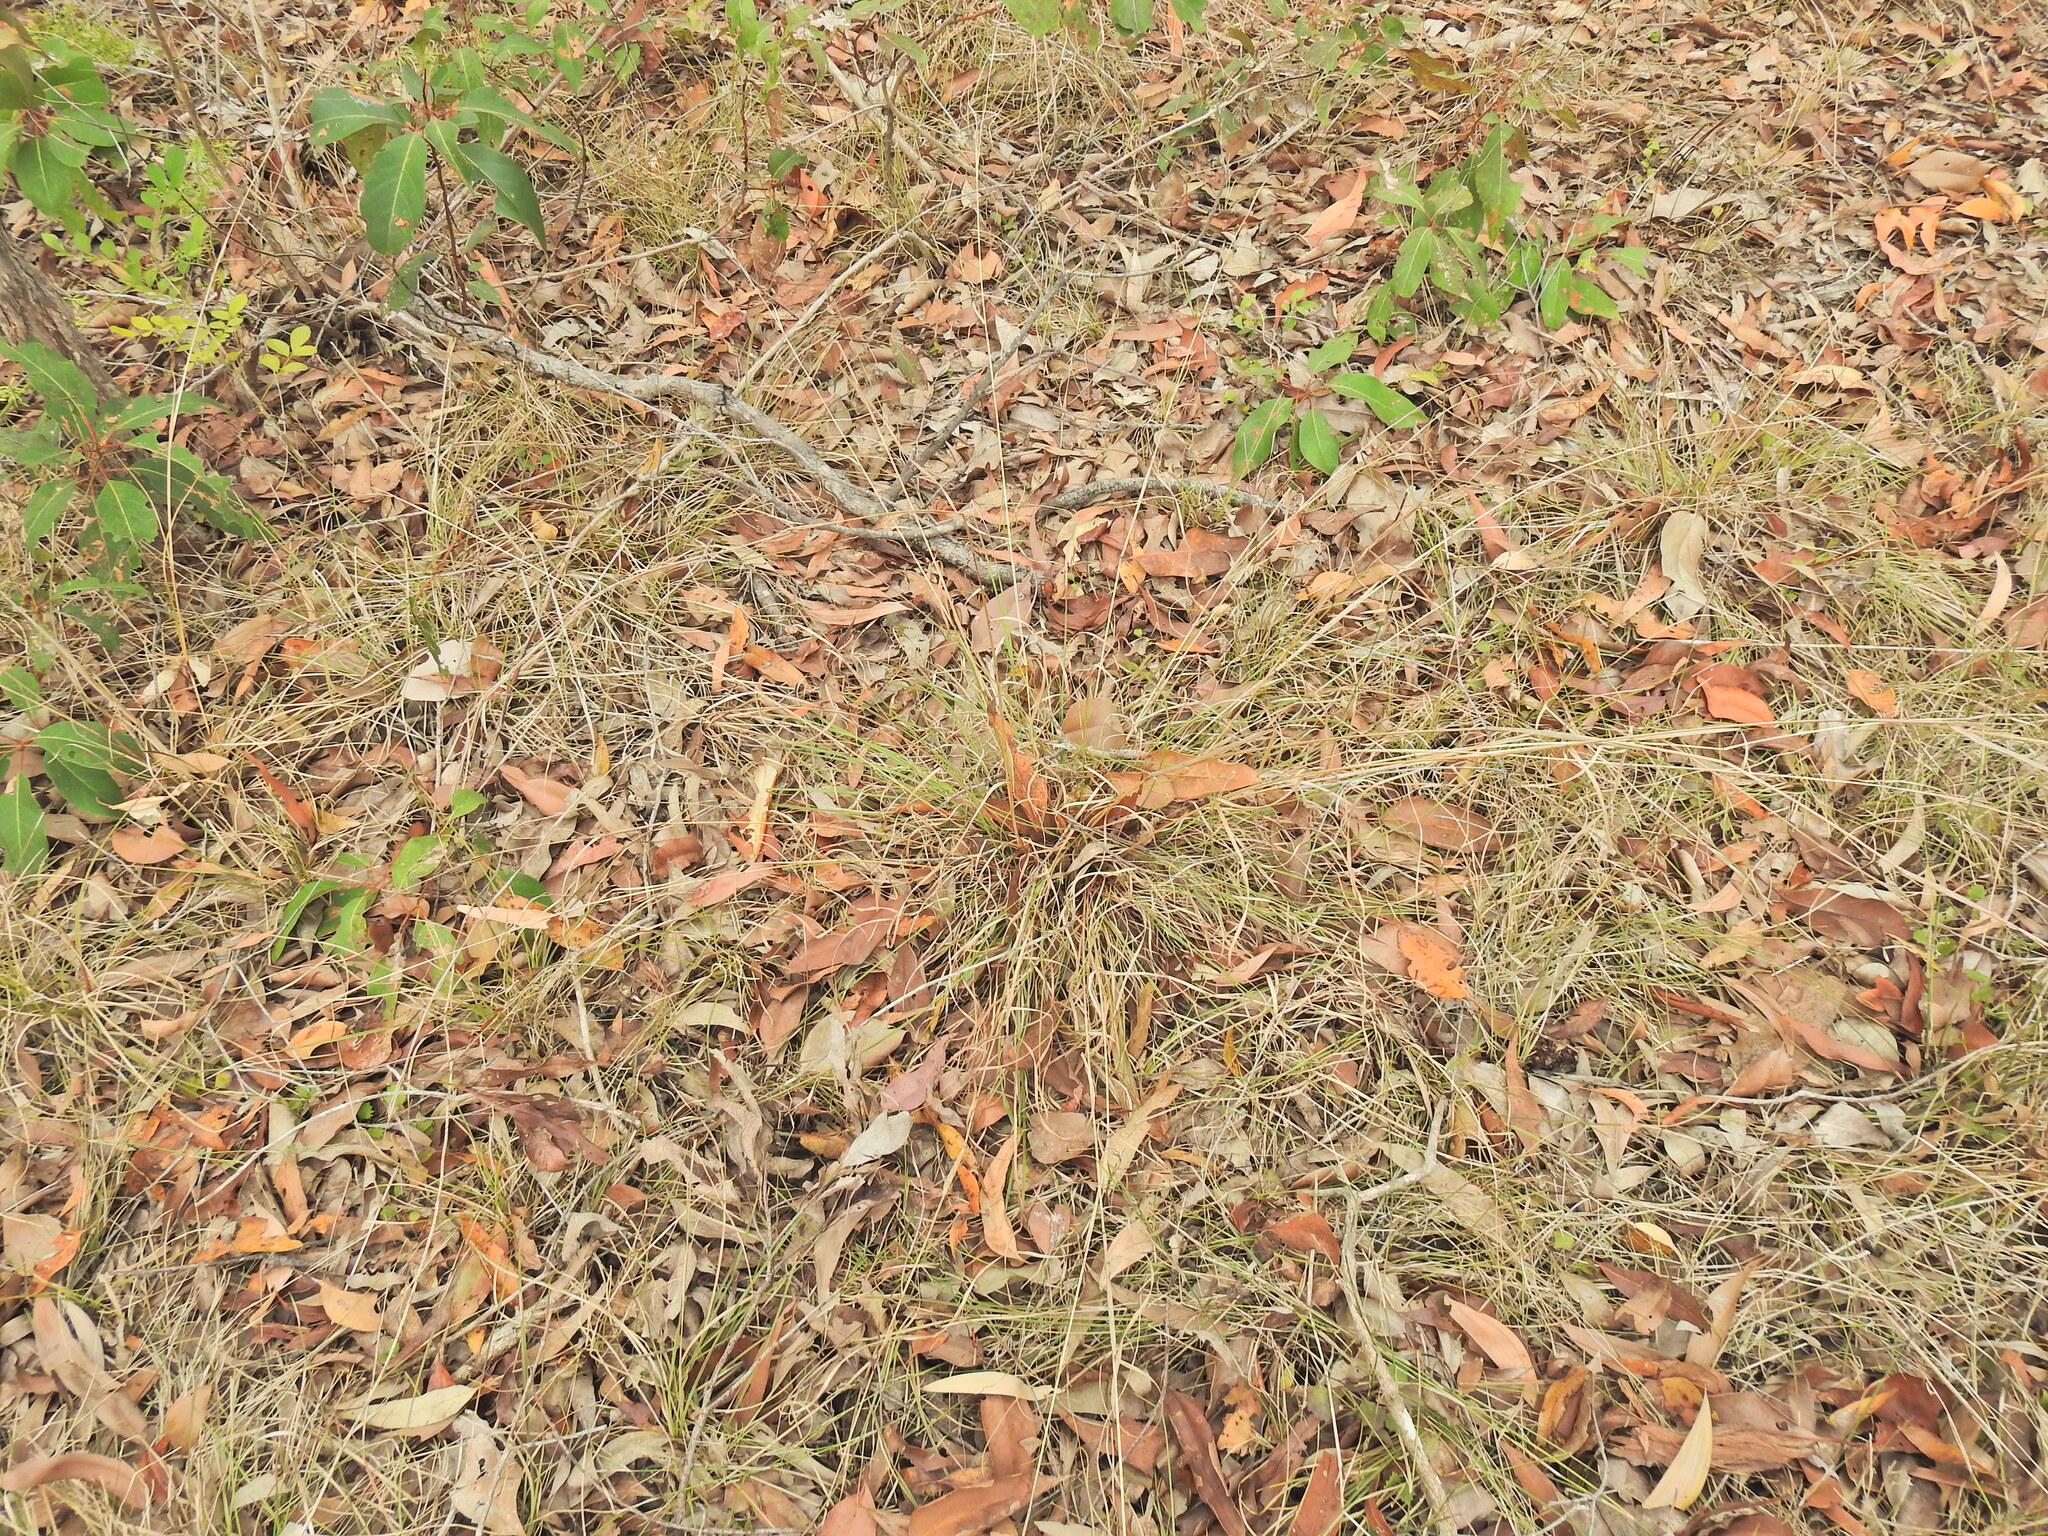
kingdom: Plantae
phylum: Tracheophyta
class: Liliopsida
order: Poales
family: Poaceae
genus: Cymbopogon
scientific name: Cymbopogon refractus
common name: Barbwire grass
